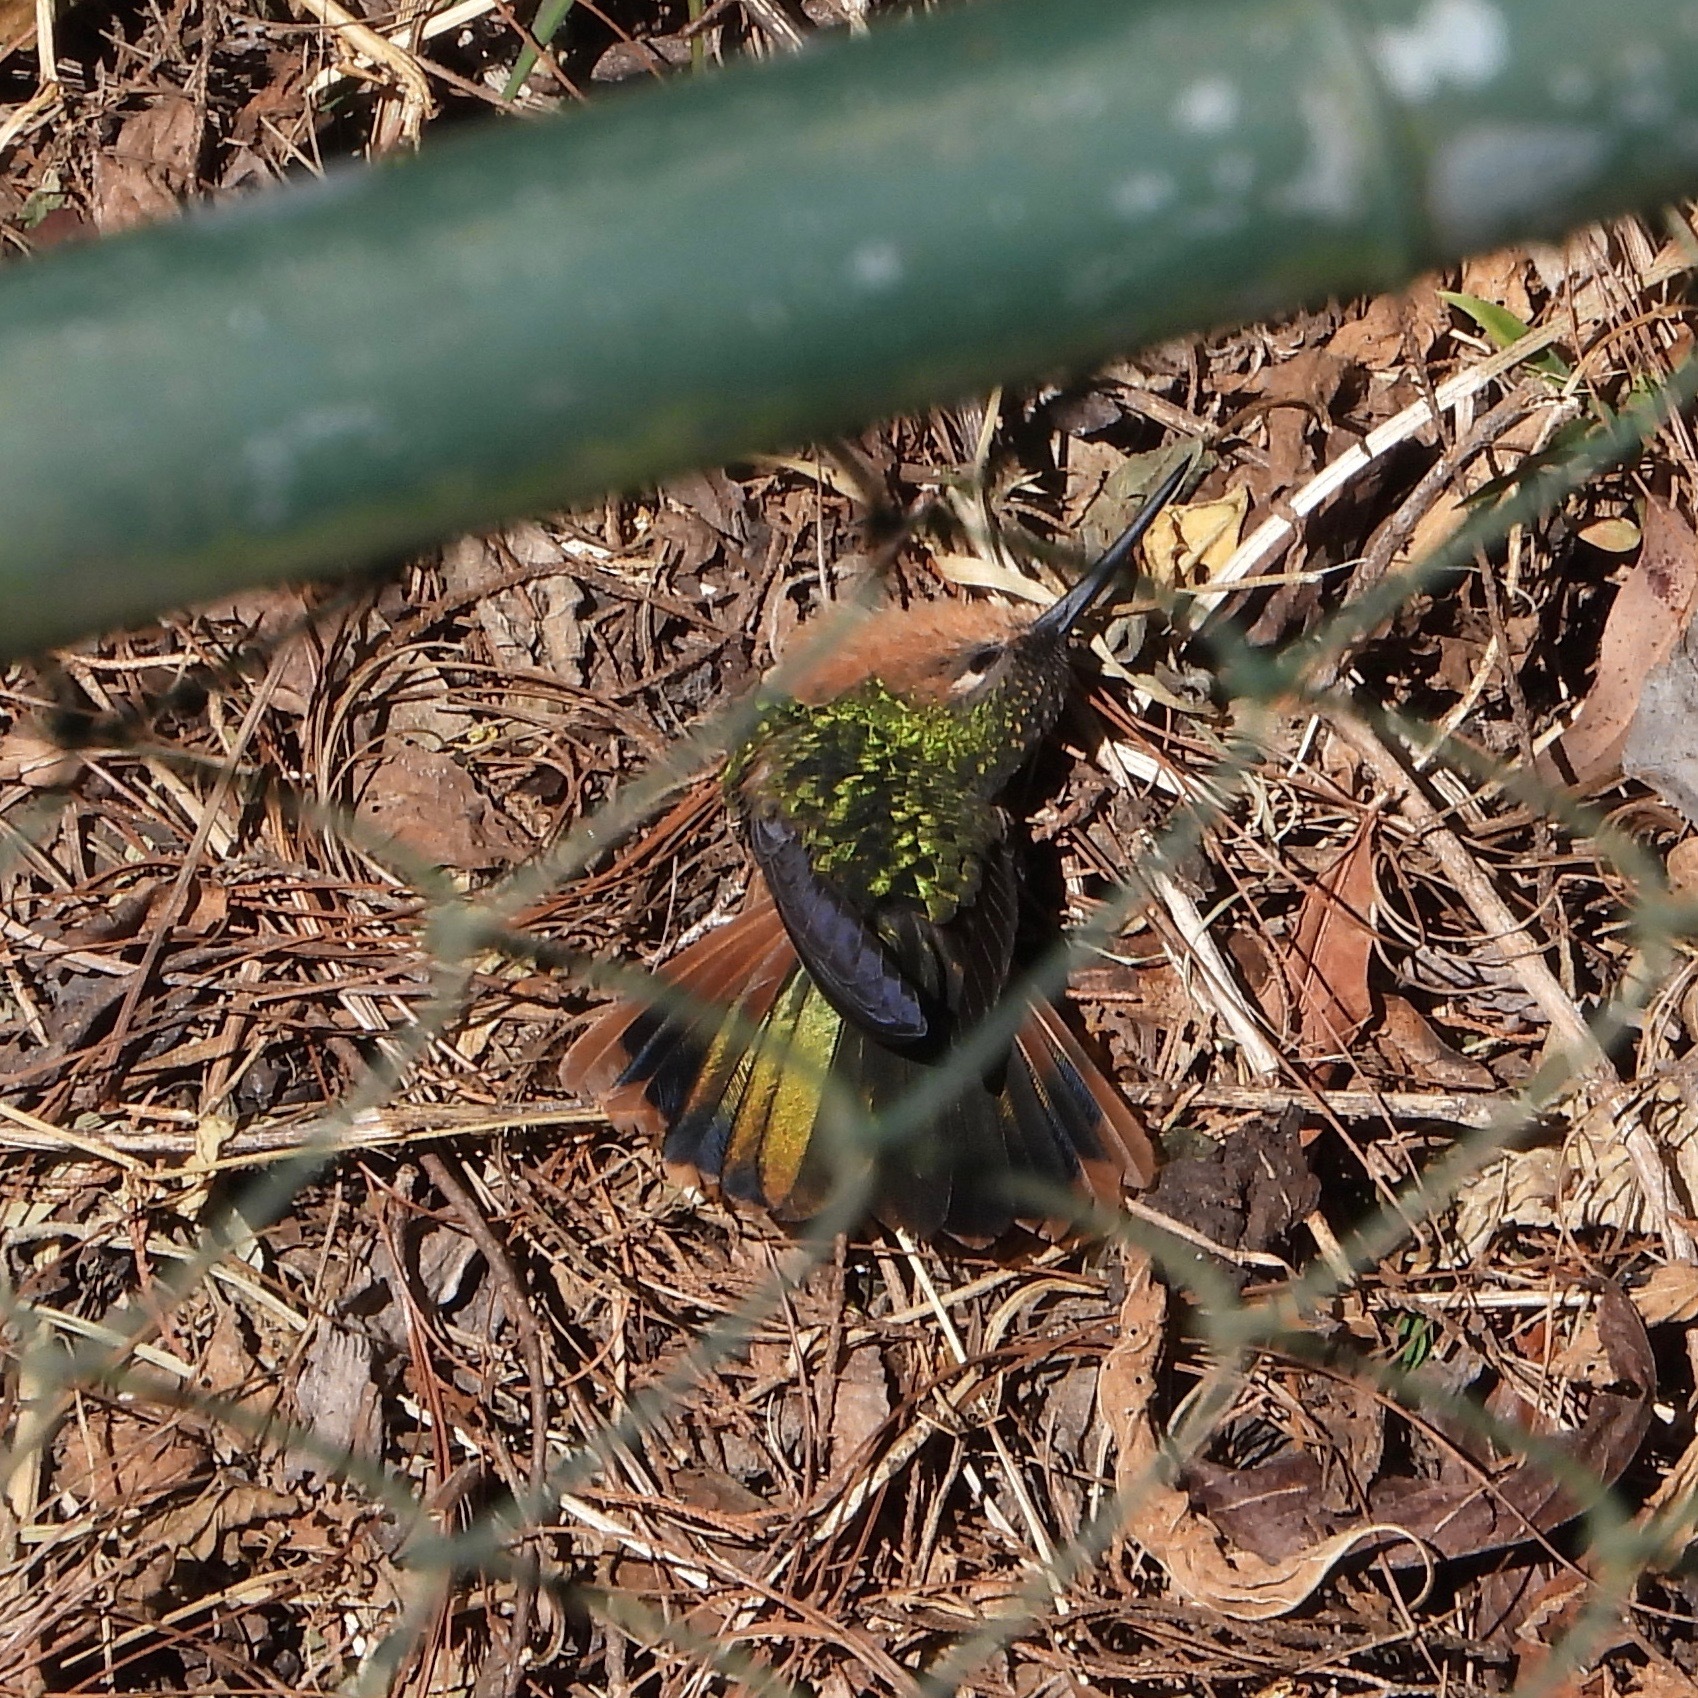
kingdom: Animalia
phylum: Chordata
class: Aves
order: Apodiformes
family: Trochilidae
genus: Pampa
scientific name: Pampa rufa
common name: Rufous sabrewing
